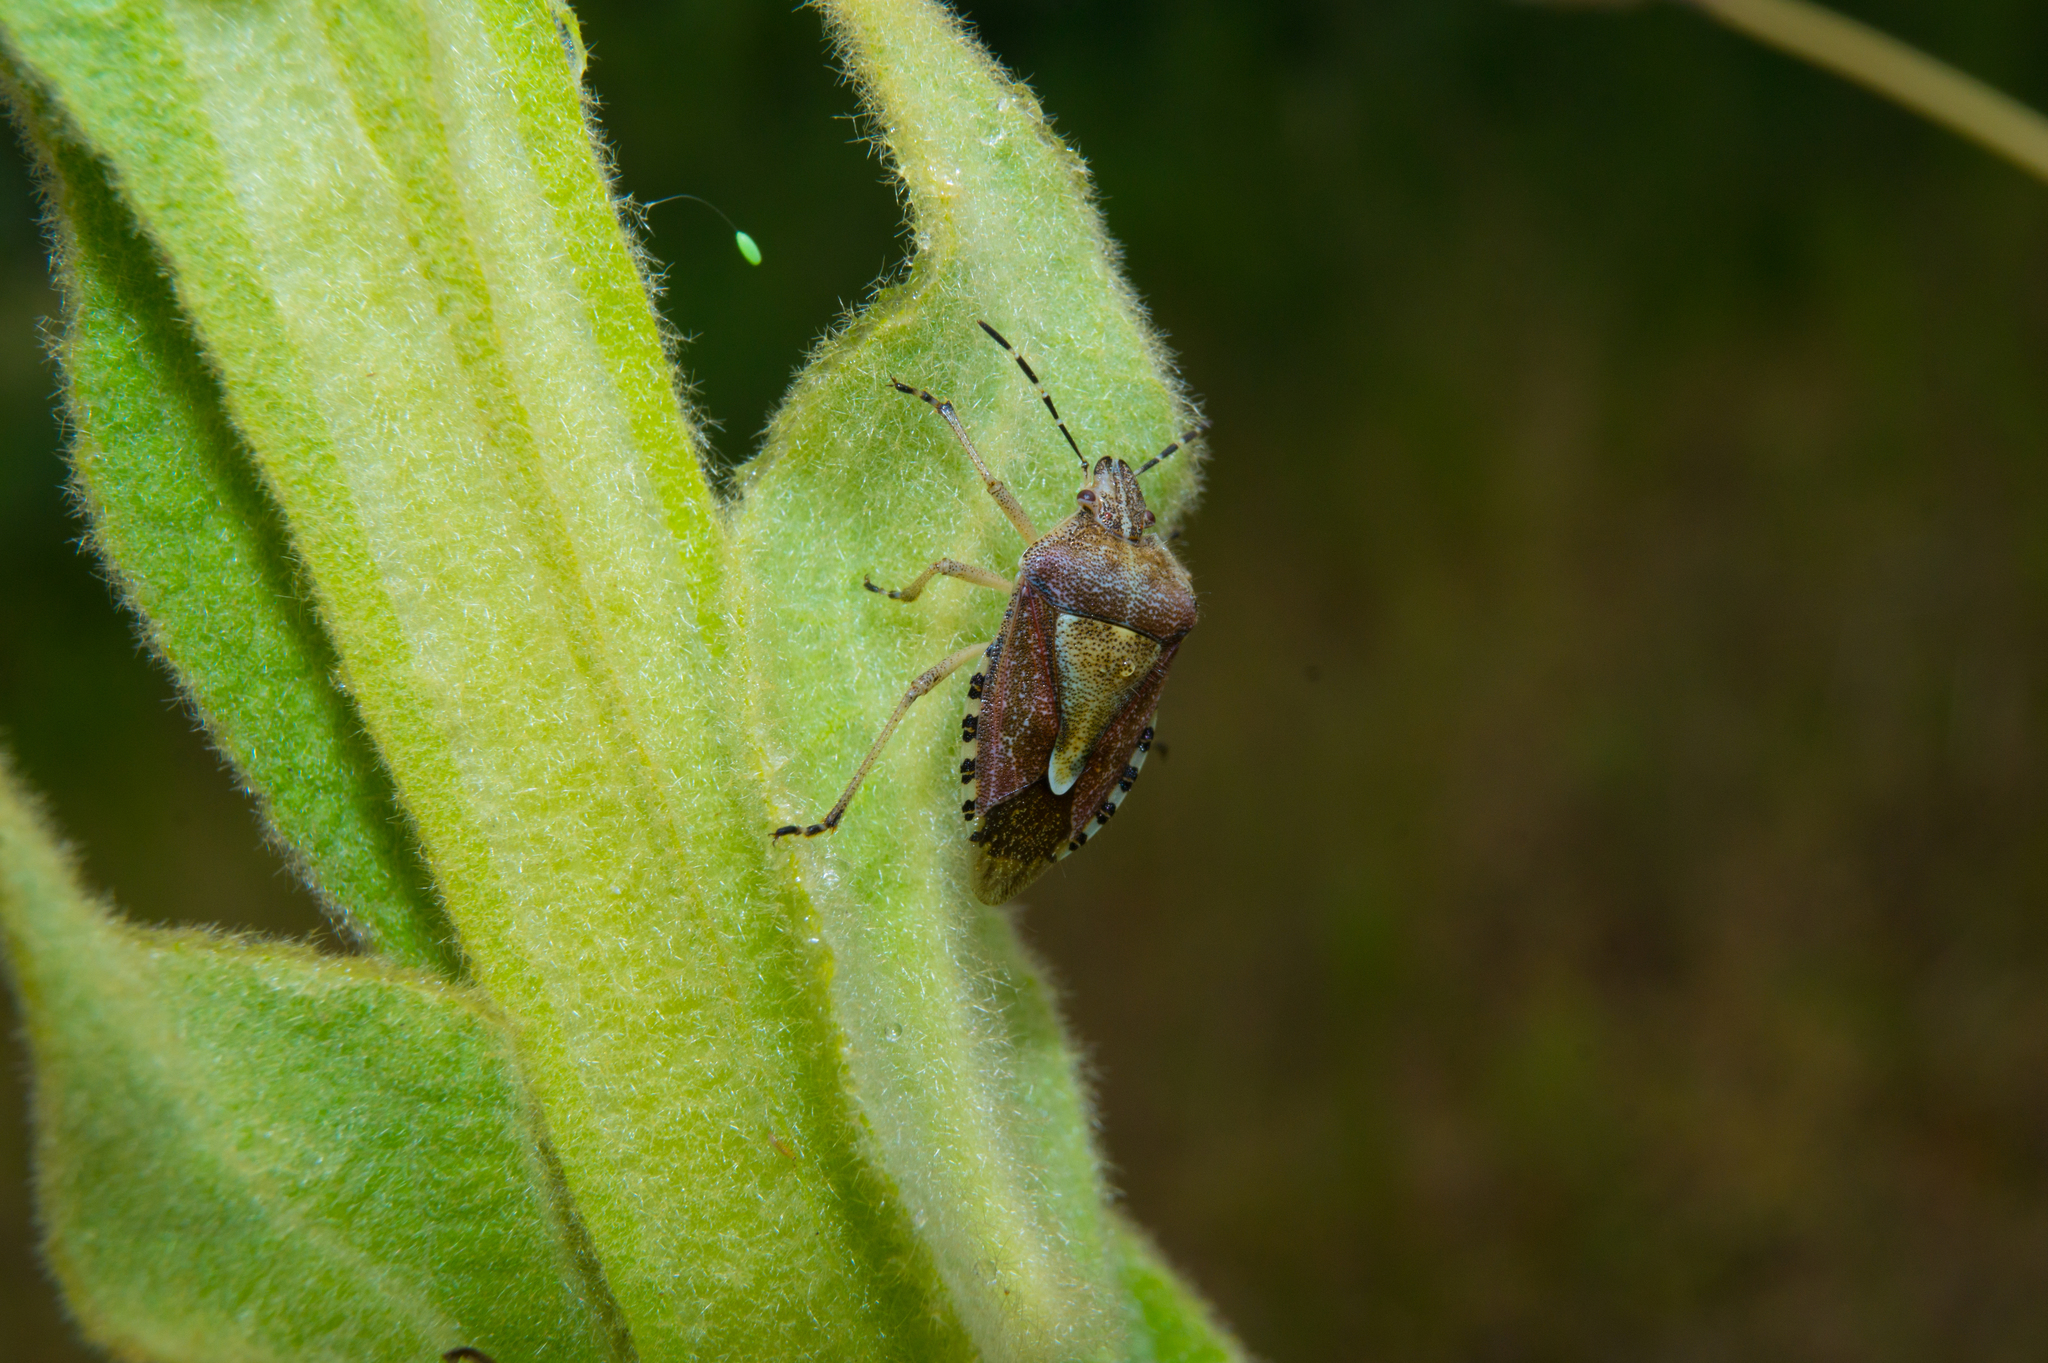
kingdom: Animalia
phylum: Arthropoda
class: Insecta
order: Hemiptera
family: Pentatomidae
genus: Dolycoris
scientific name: Dolycoris baccarum
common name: Sloe bug
